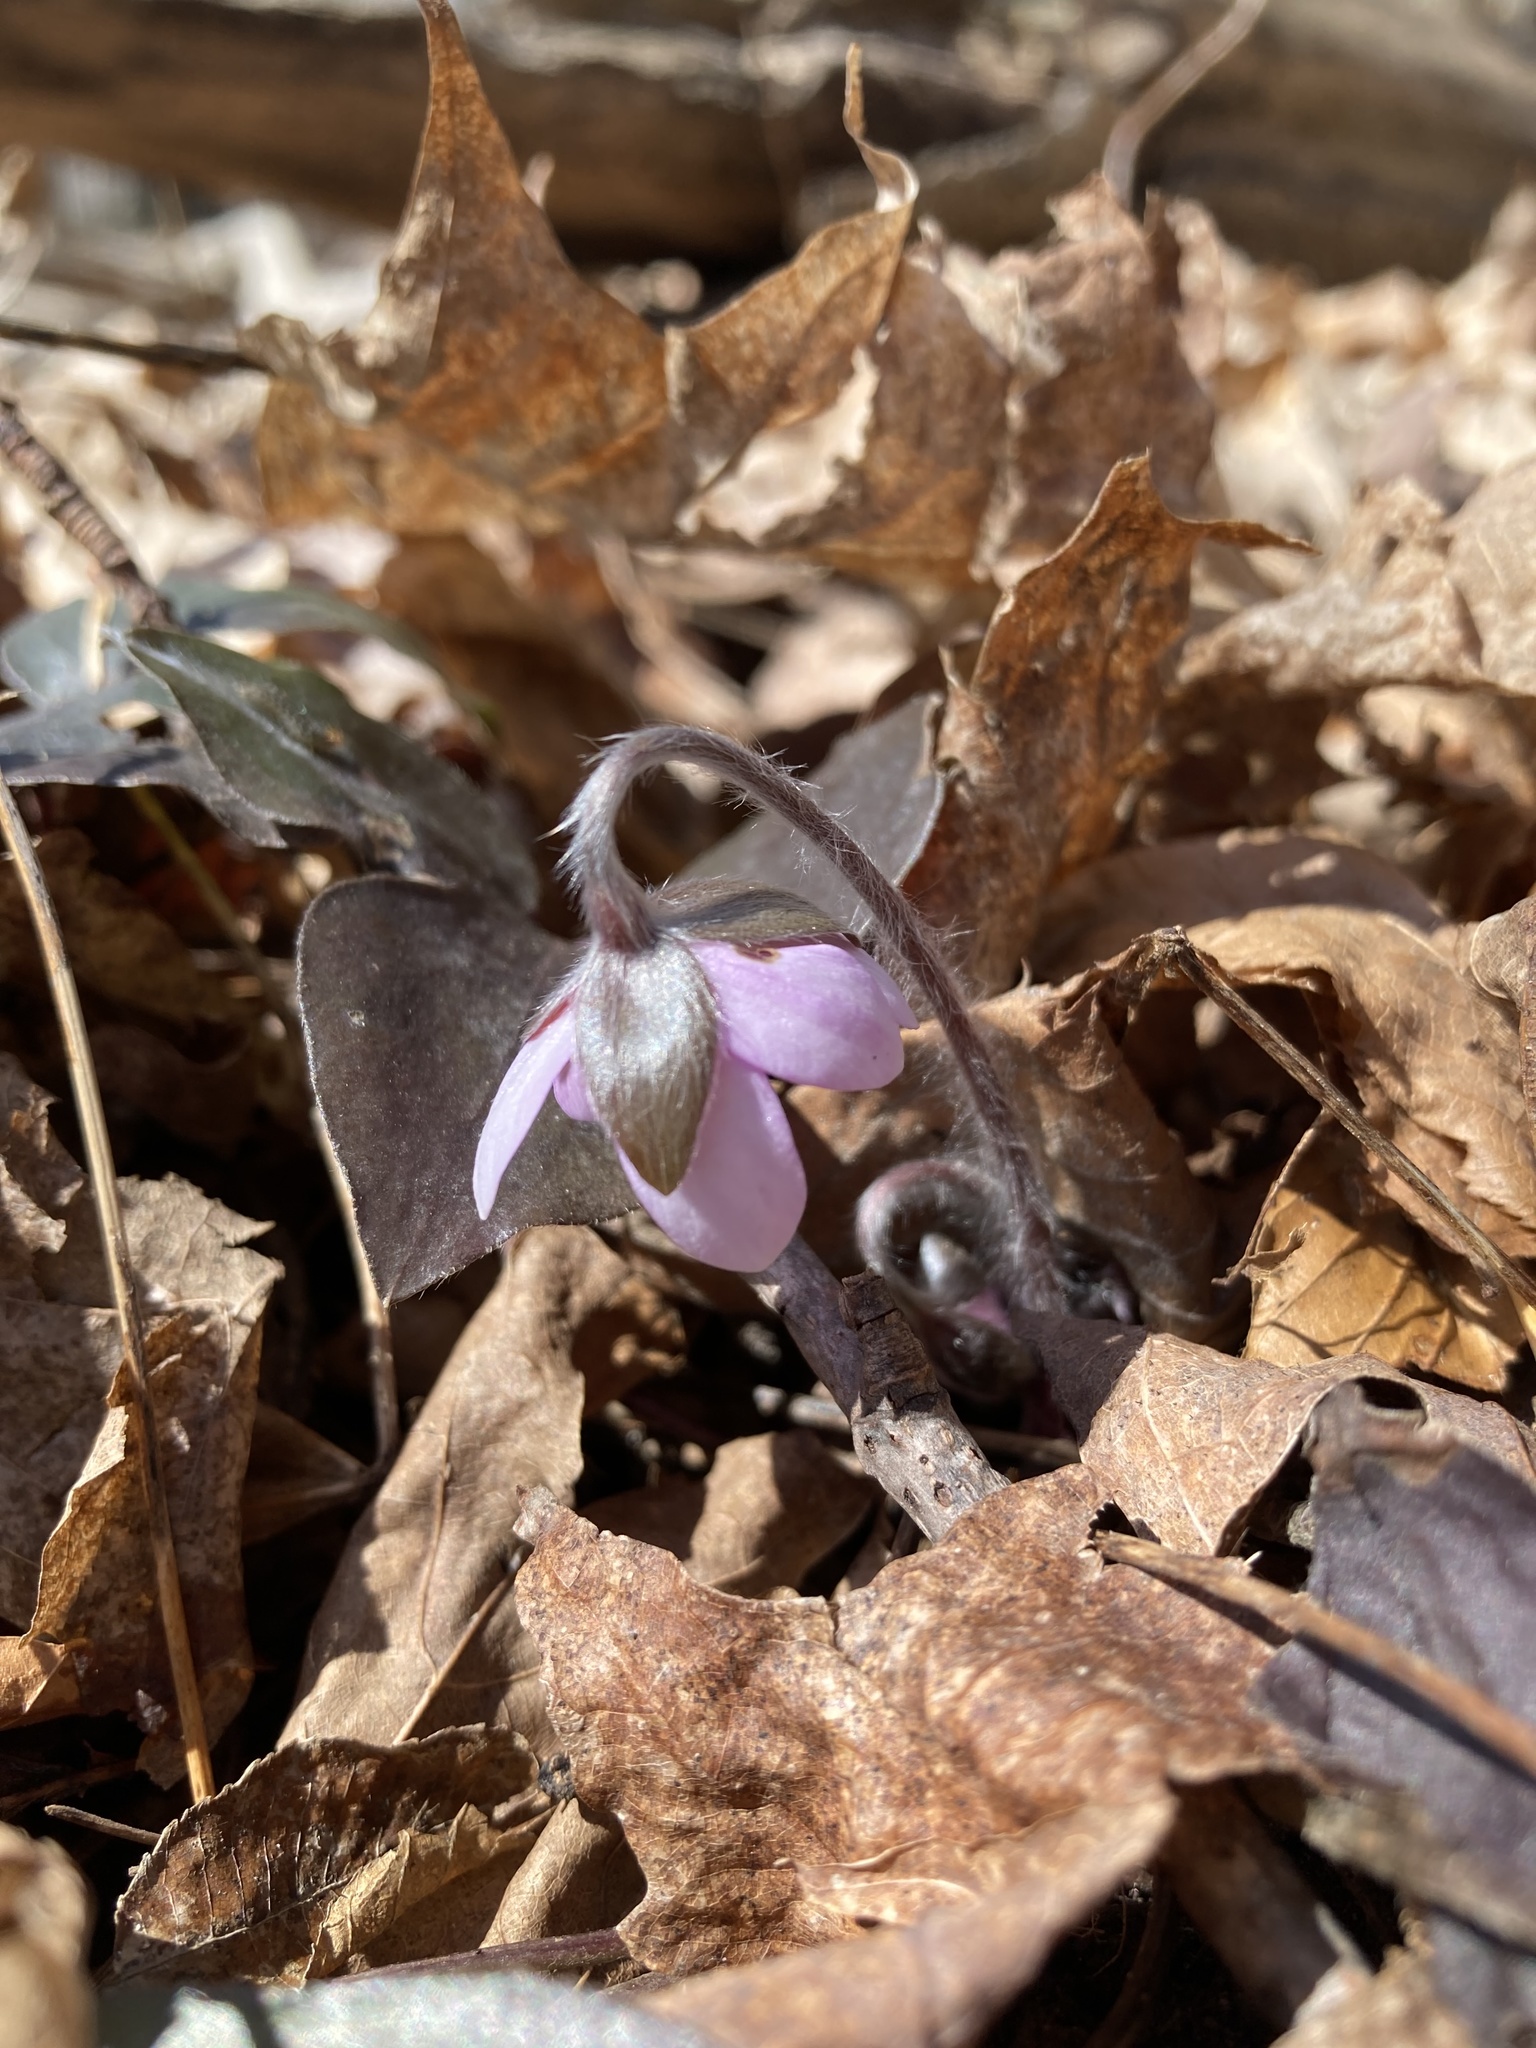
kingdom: Plantae
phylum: Tracheophyta
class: Magnoliopsida
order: Ranunculales
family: Ranunculaceae
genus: Hepatica
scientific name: Hepatica acutiloba
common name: Sharp-lobed hepatica
